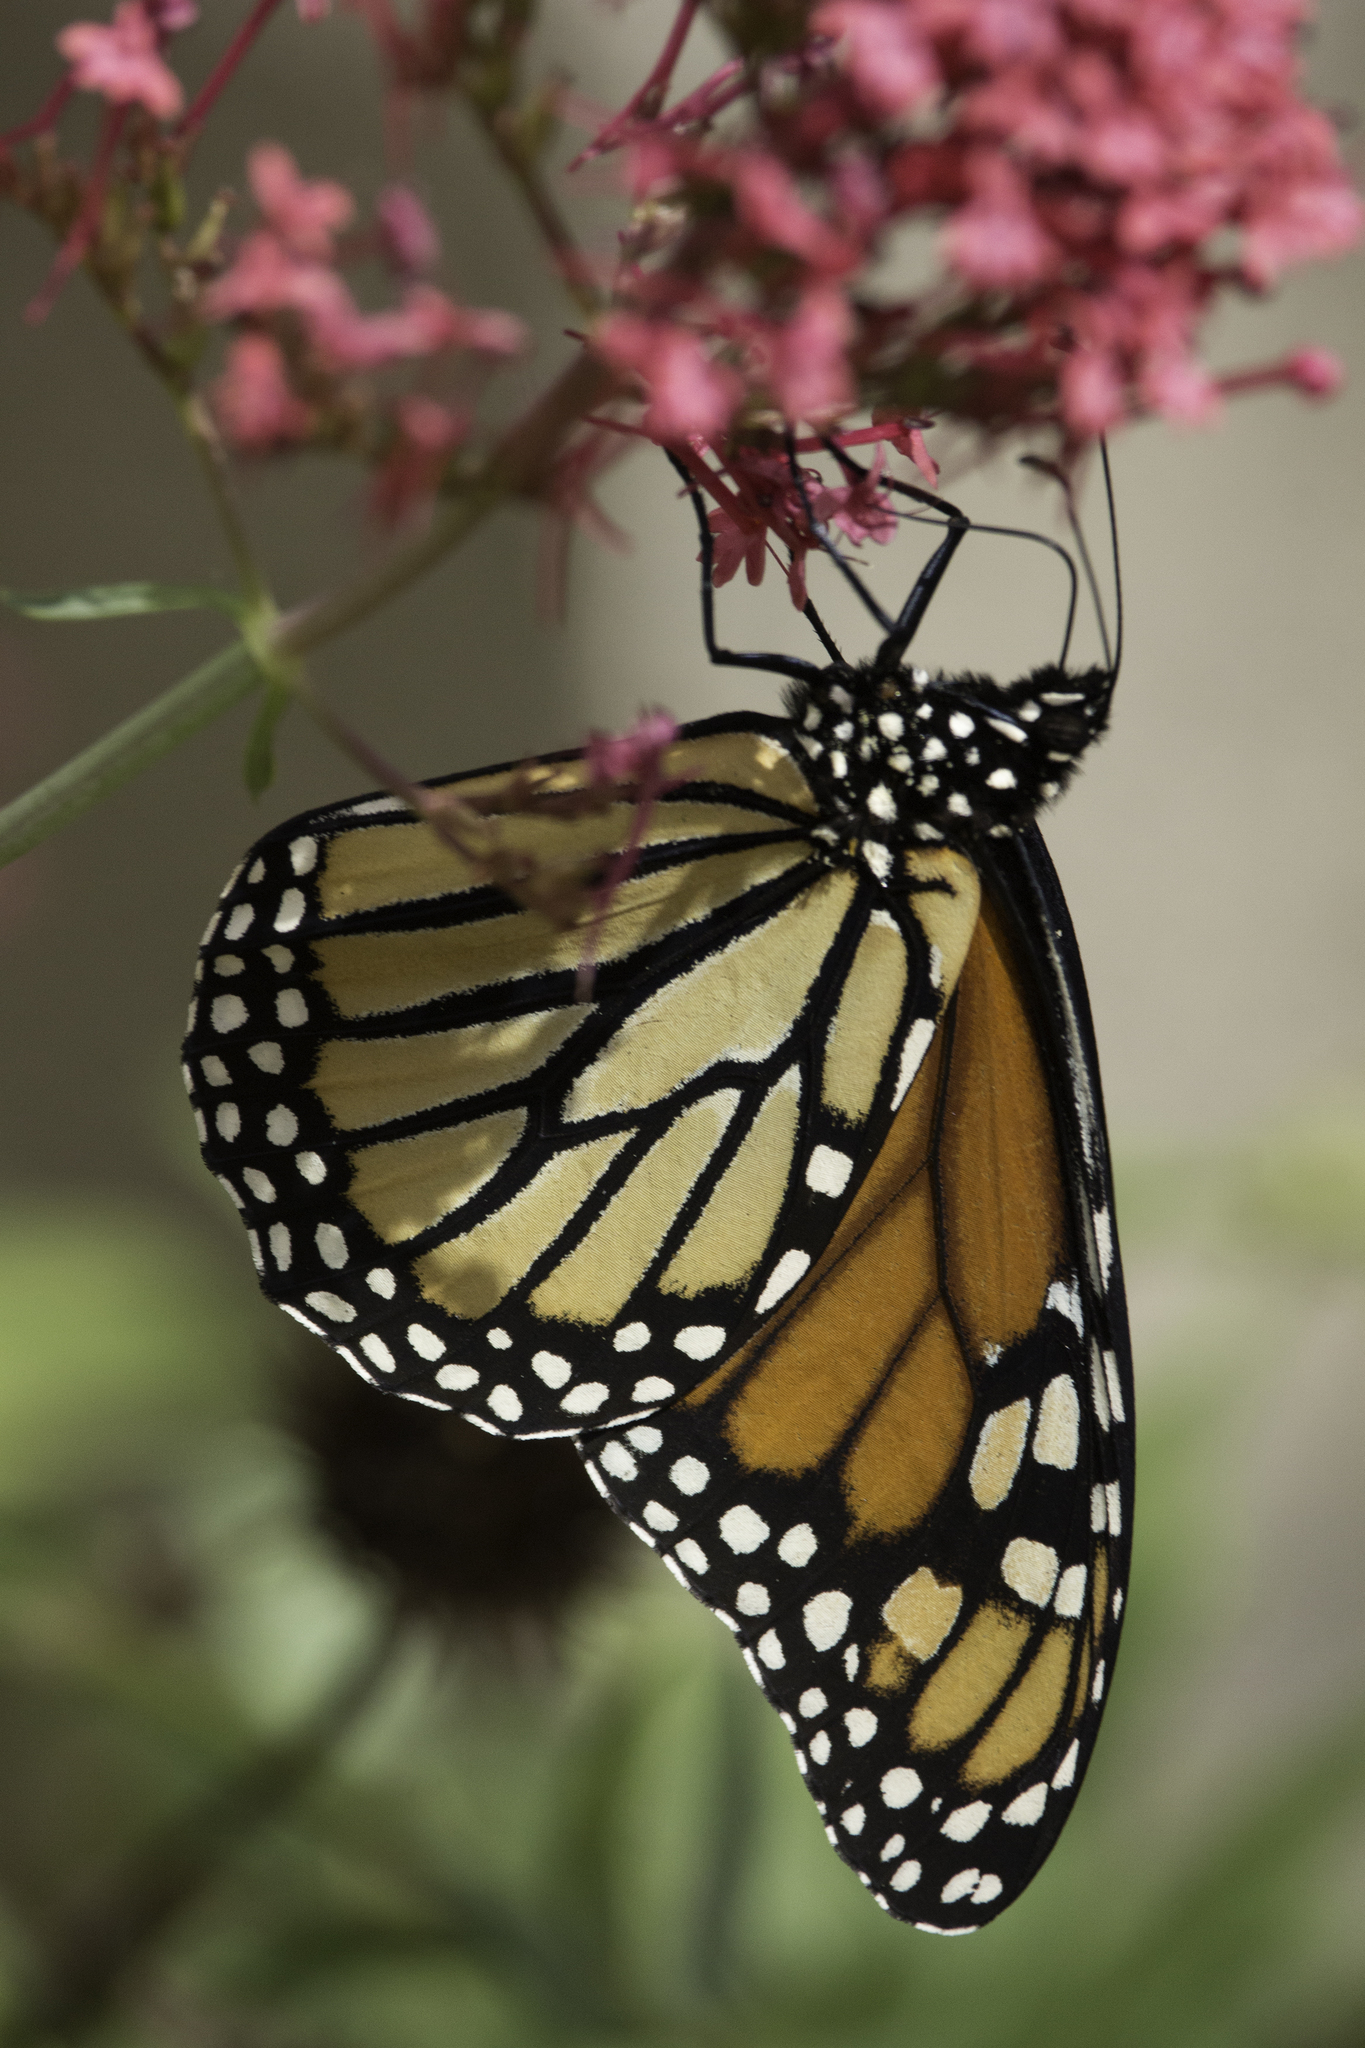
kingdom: Animalia
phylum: Arthropoda
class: Insecta
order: Lepidoptera
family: Nymphalidae
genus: Danaus
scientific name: Danaus plexippus
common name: Monarch
